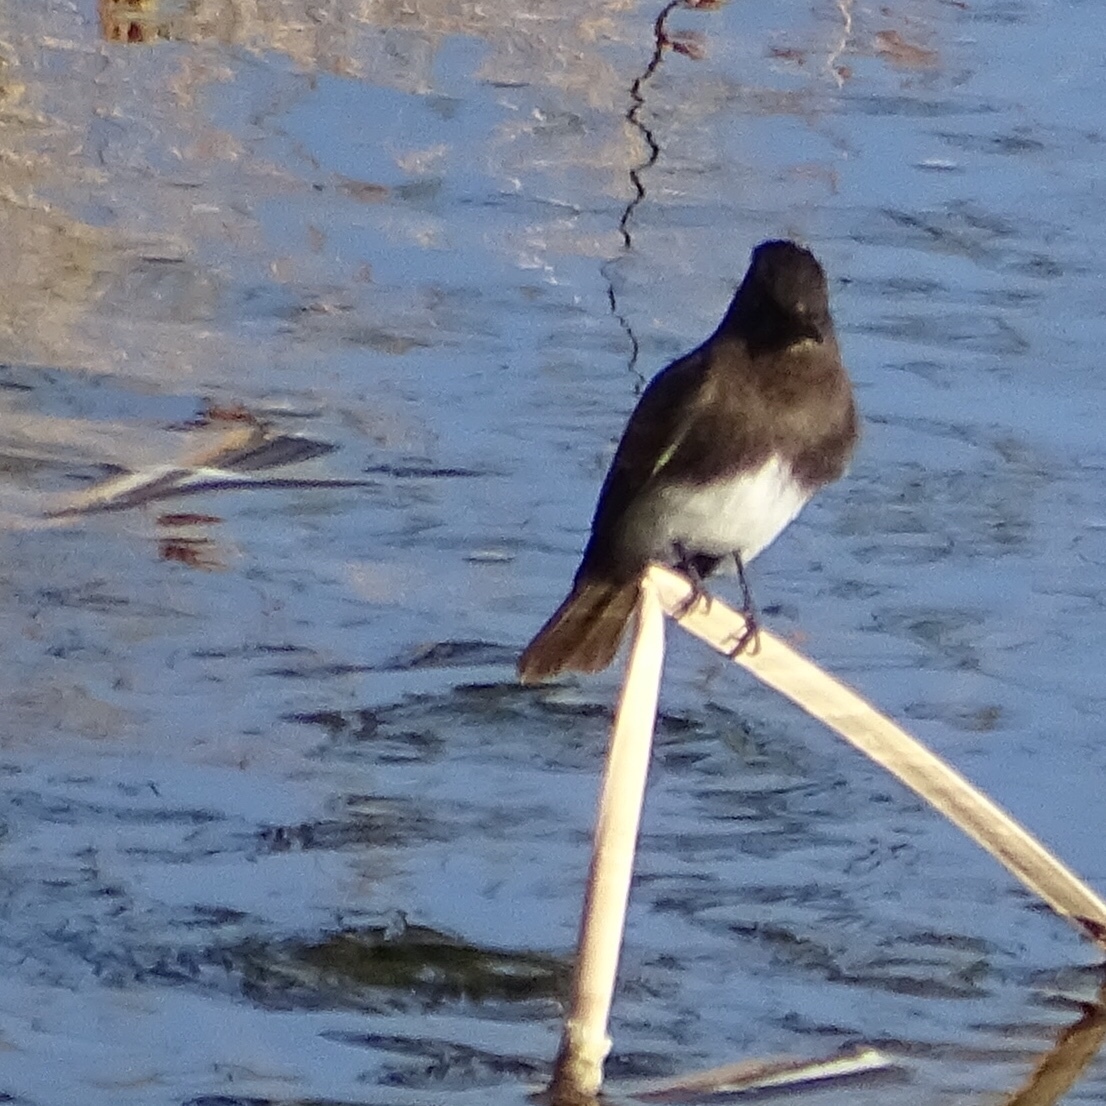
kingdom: Animalia
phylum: Chordata
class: Aves
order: Passeriformes
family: Tyrannidae
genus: Sayornis
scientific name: Sayornis nigricans
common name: Black phoebe
